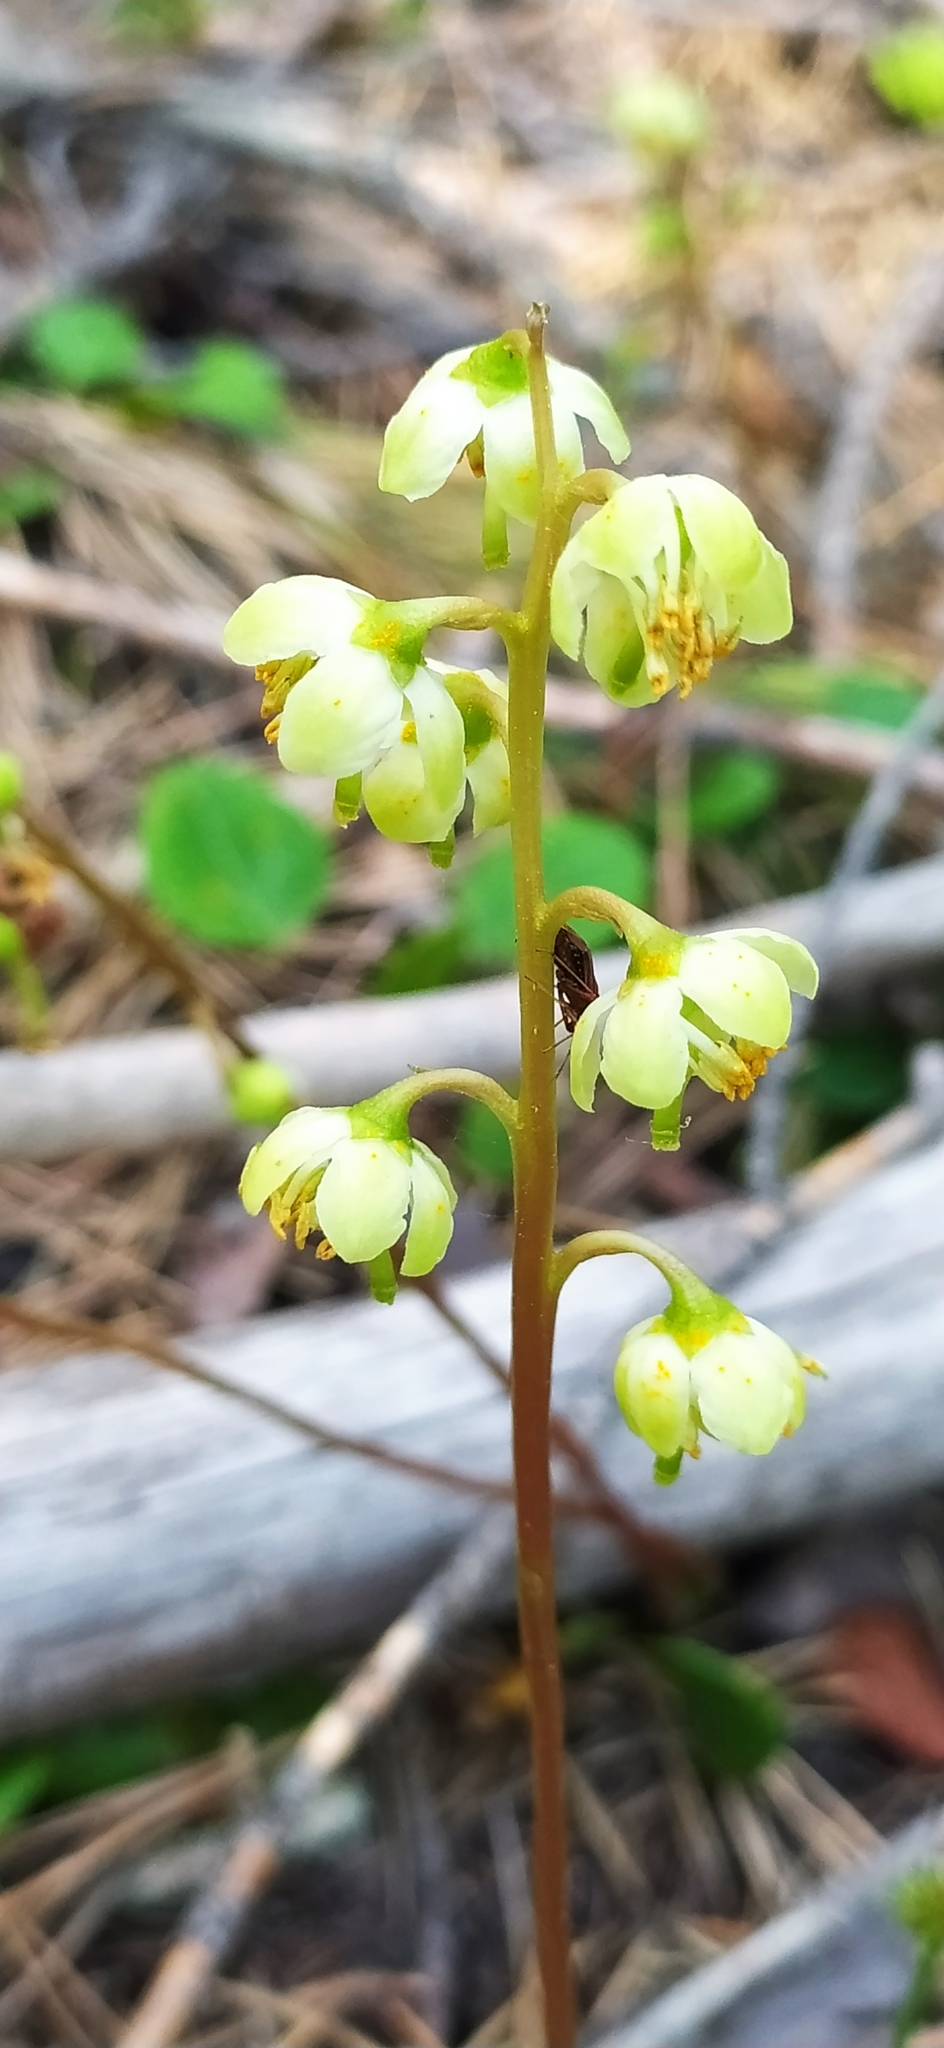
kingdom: Plantae
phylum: Tracheophyta
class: Magnoliopsida
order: Ericales
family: Ericaceae
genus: Pyrola
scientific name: Pyrola chlorantha
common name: Green wintergreen
